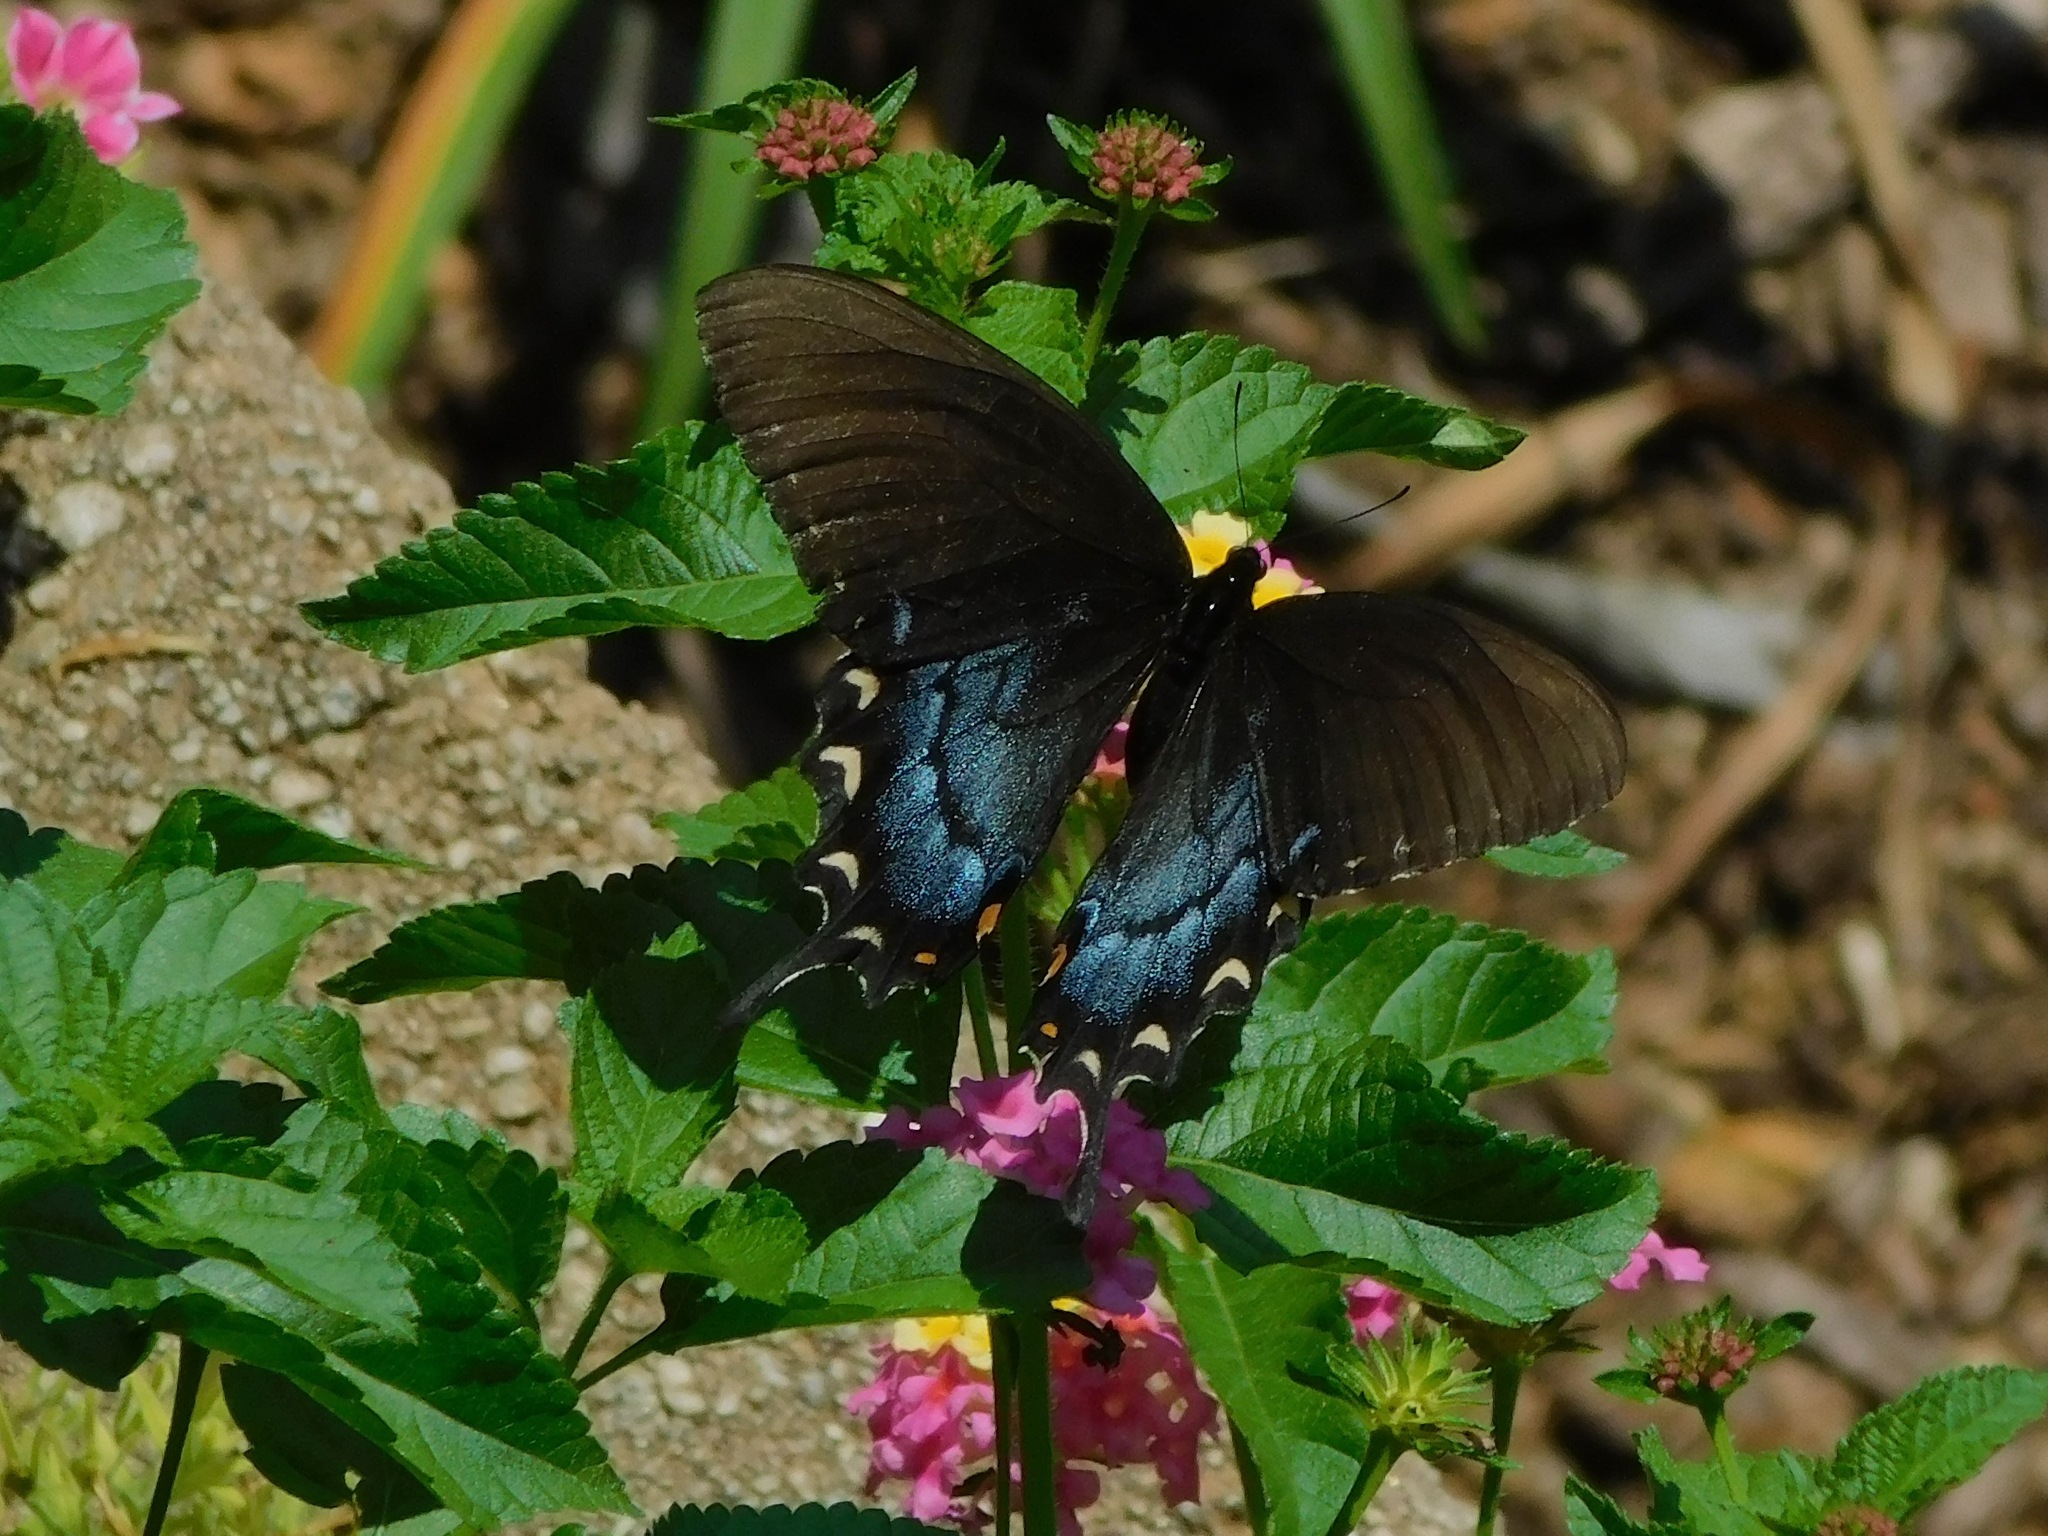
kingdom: Animalia
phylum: Arthropoda
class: Insecta
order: Lepidoptera
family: Papilionidae
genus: Papilio
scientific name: Papilio glaucus
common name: Tiger swallowtail
